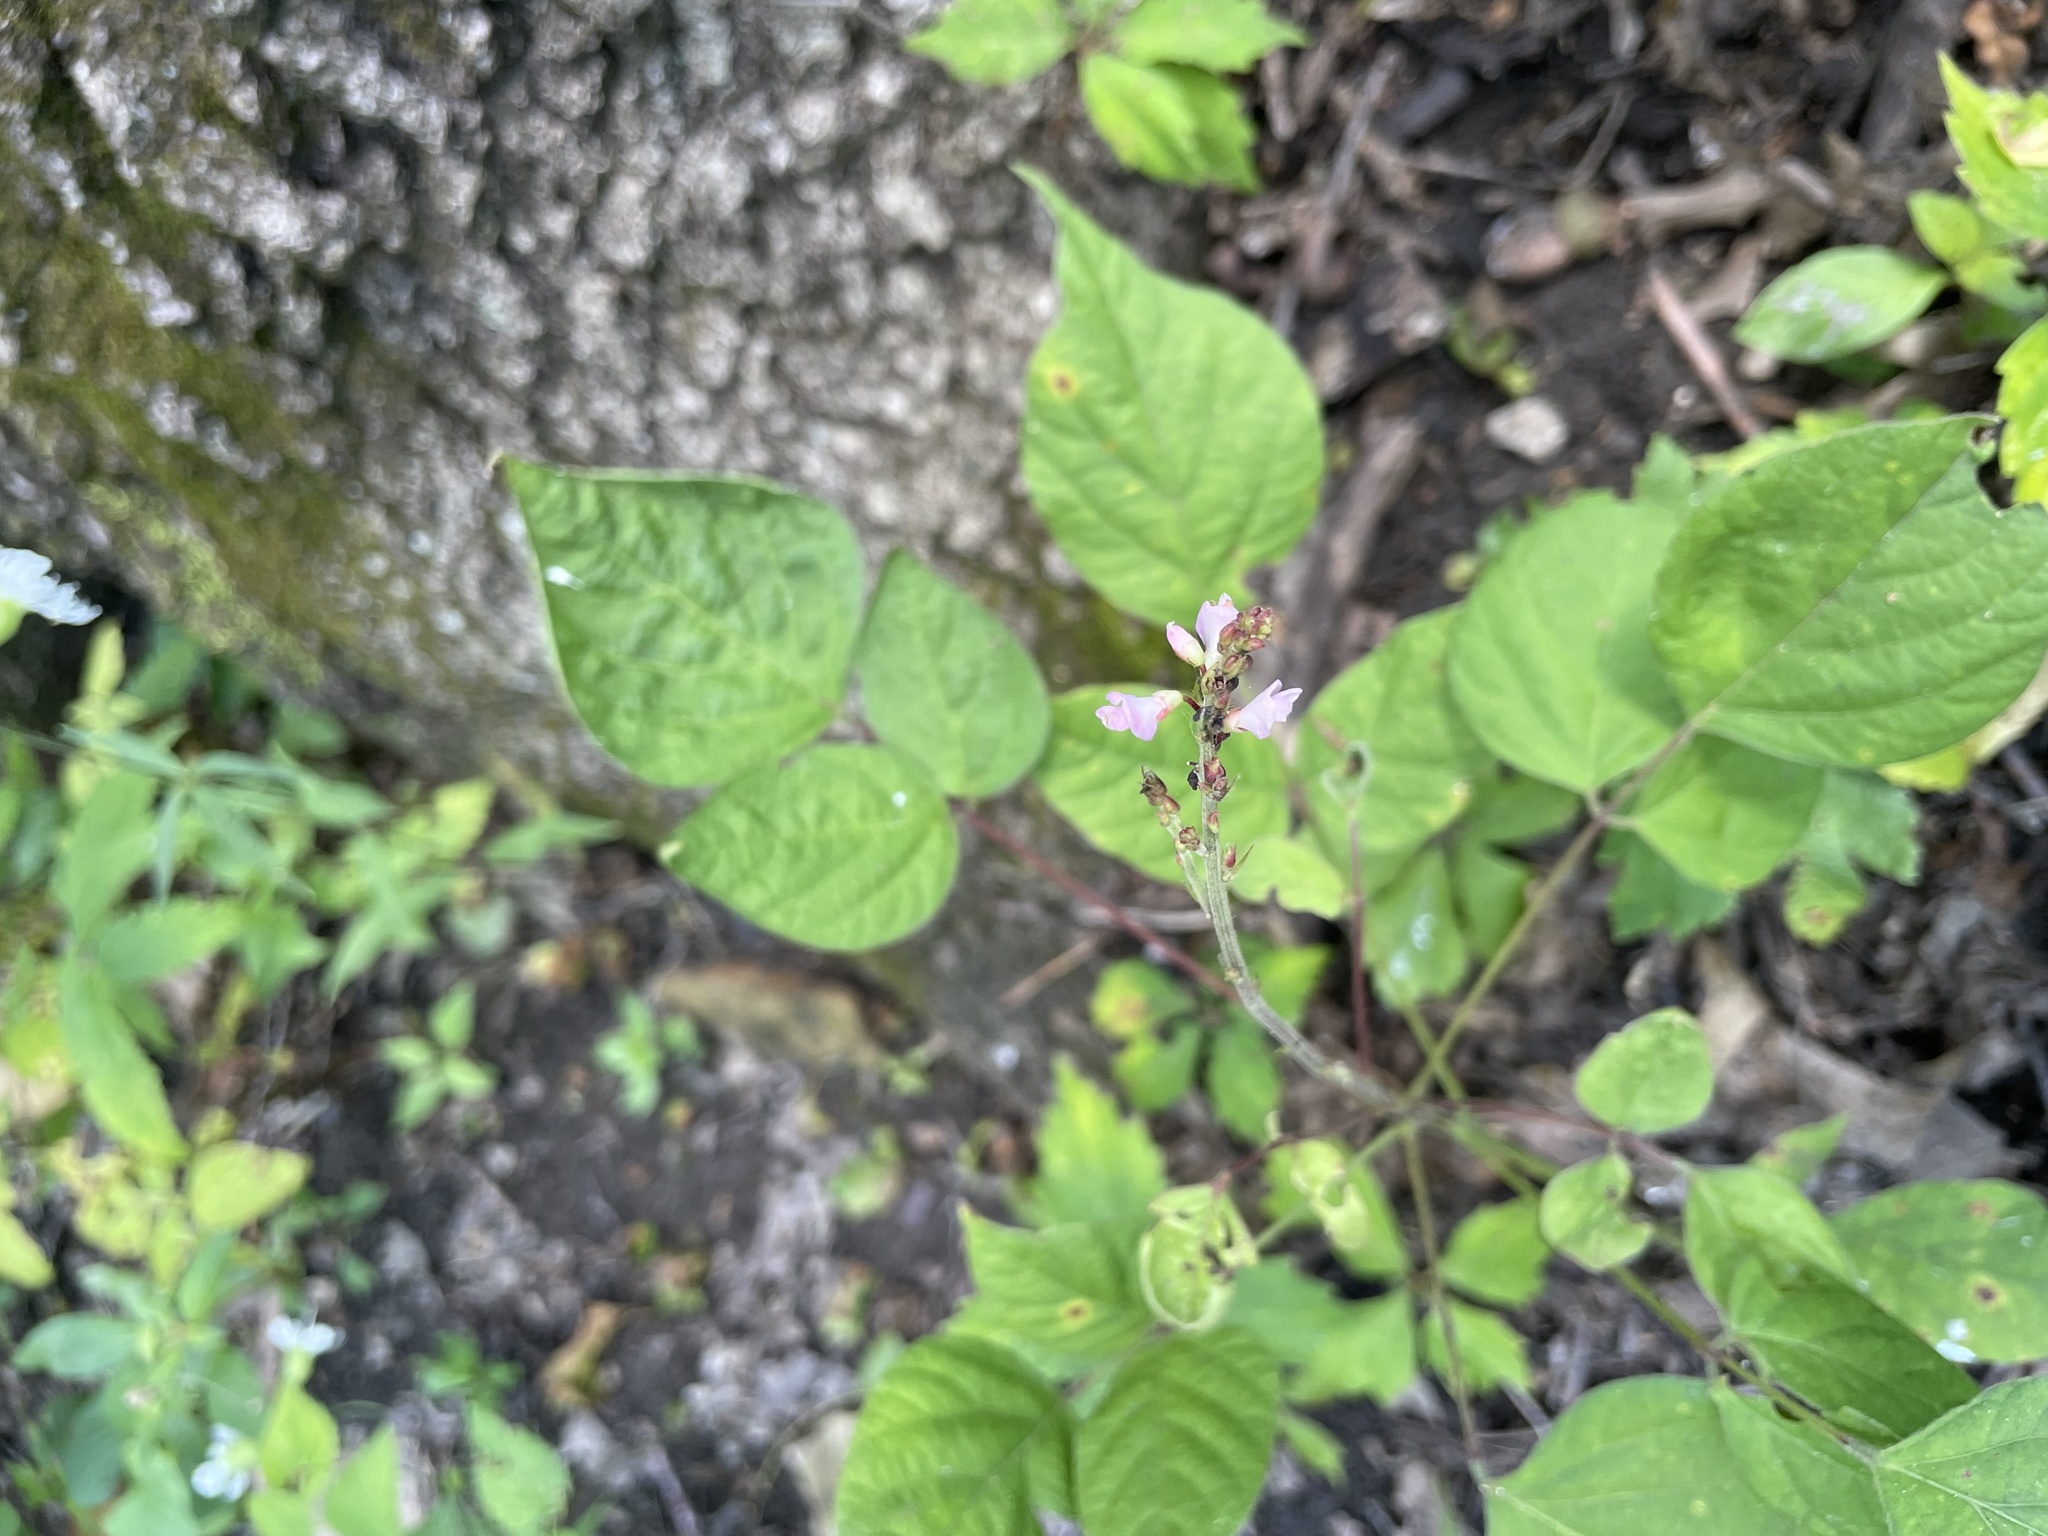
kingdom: Plantae
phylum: Tracheophyta
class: Magnoliopsida
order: Fabales
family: Fabaceae
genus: Hylodesmum
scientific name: Hylodesmum glutinosum
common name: Clustered-leaved tick-trefoil
